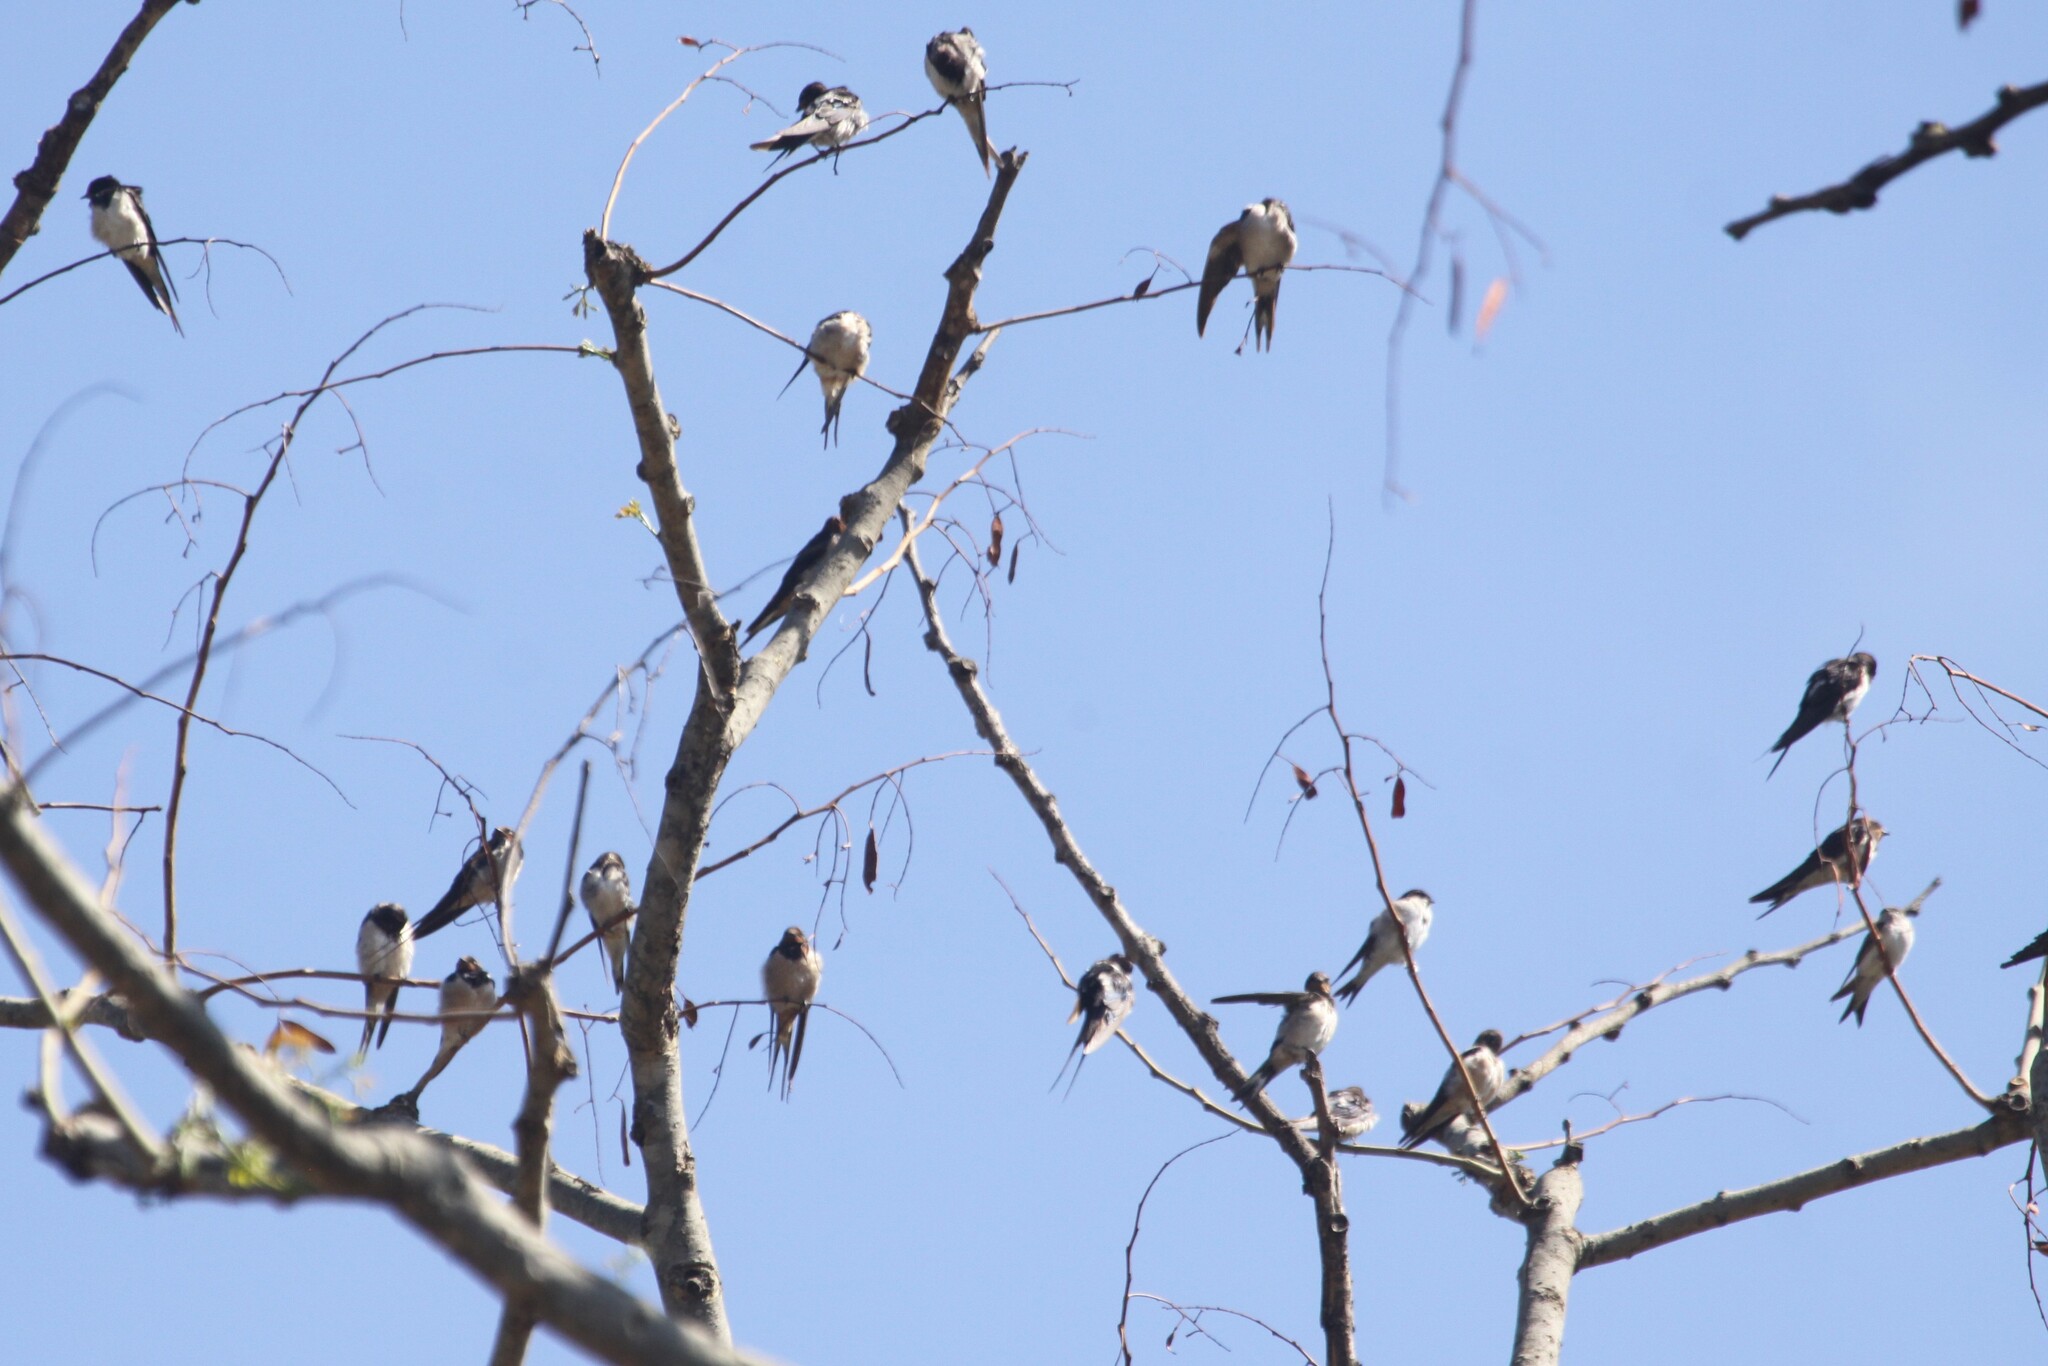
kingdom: Animalia
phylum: Chordata
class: Aves
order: Passeriformes
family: Hirundinidae
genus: Hirundo
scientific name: Hirundo rustica
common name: Barn swallow
